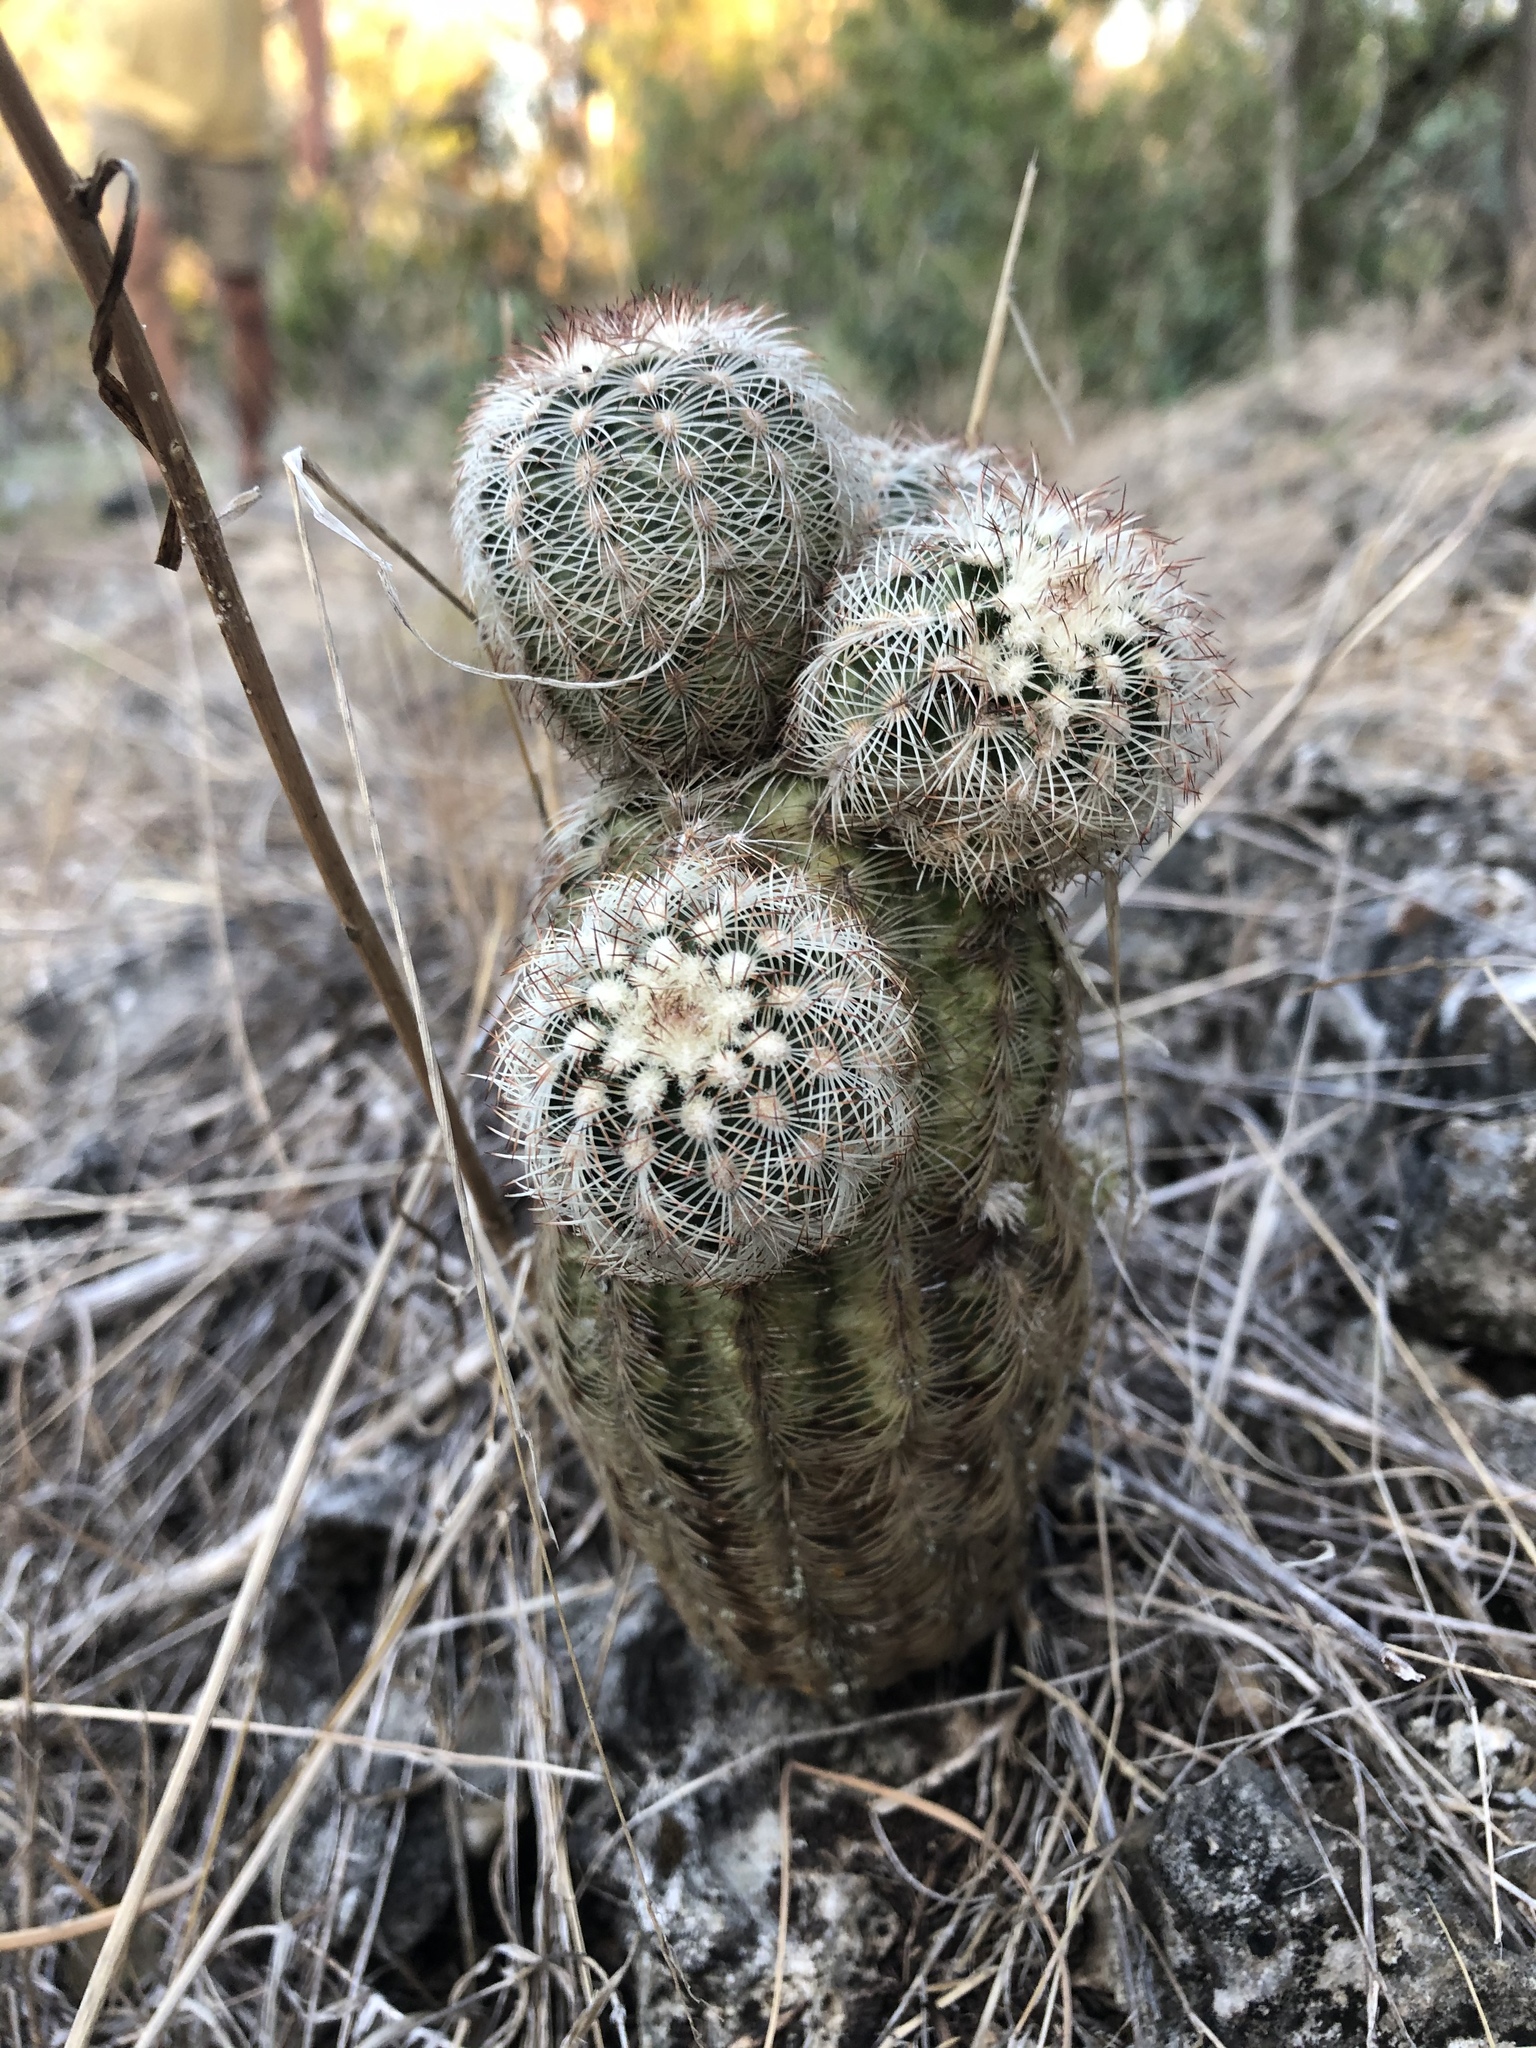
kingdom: Plantae
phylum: Tracheophyta
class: Magnoliopsida
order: Caryophyllales
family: Cactaceae
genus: Echinocereus
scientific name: Echinocereus reichenbachii
